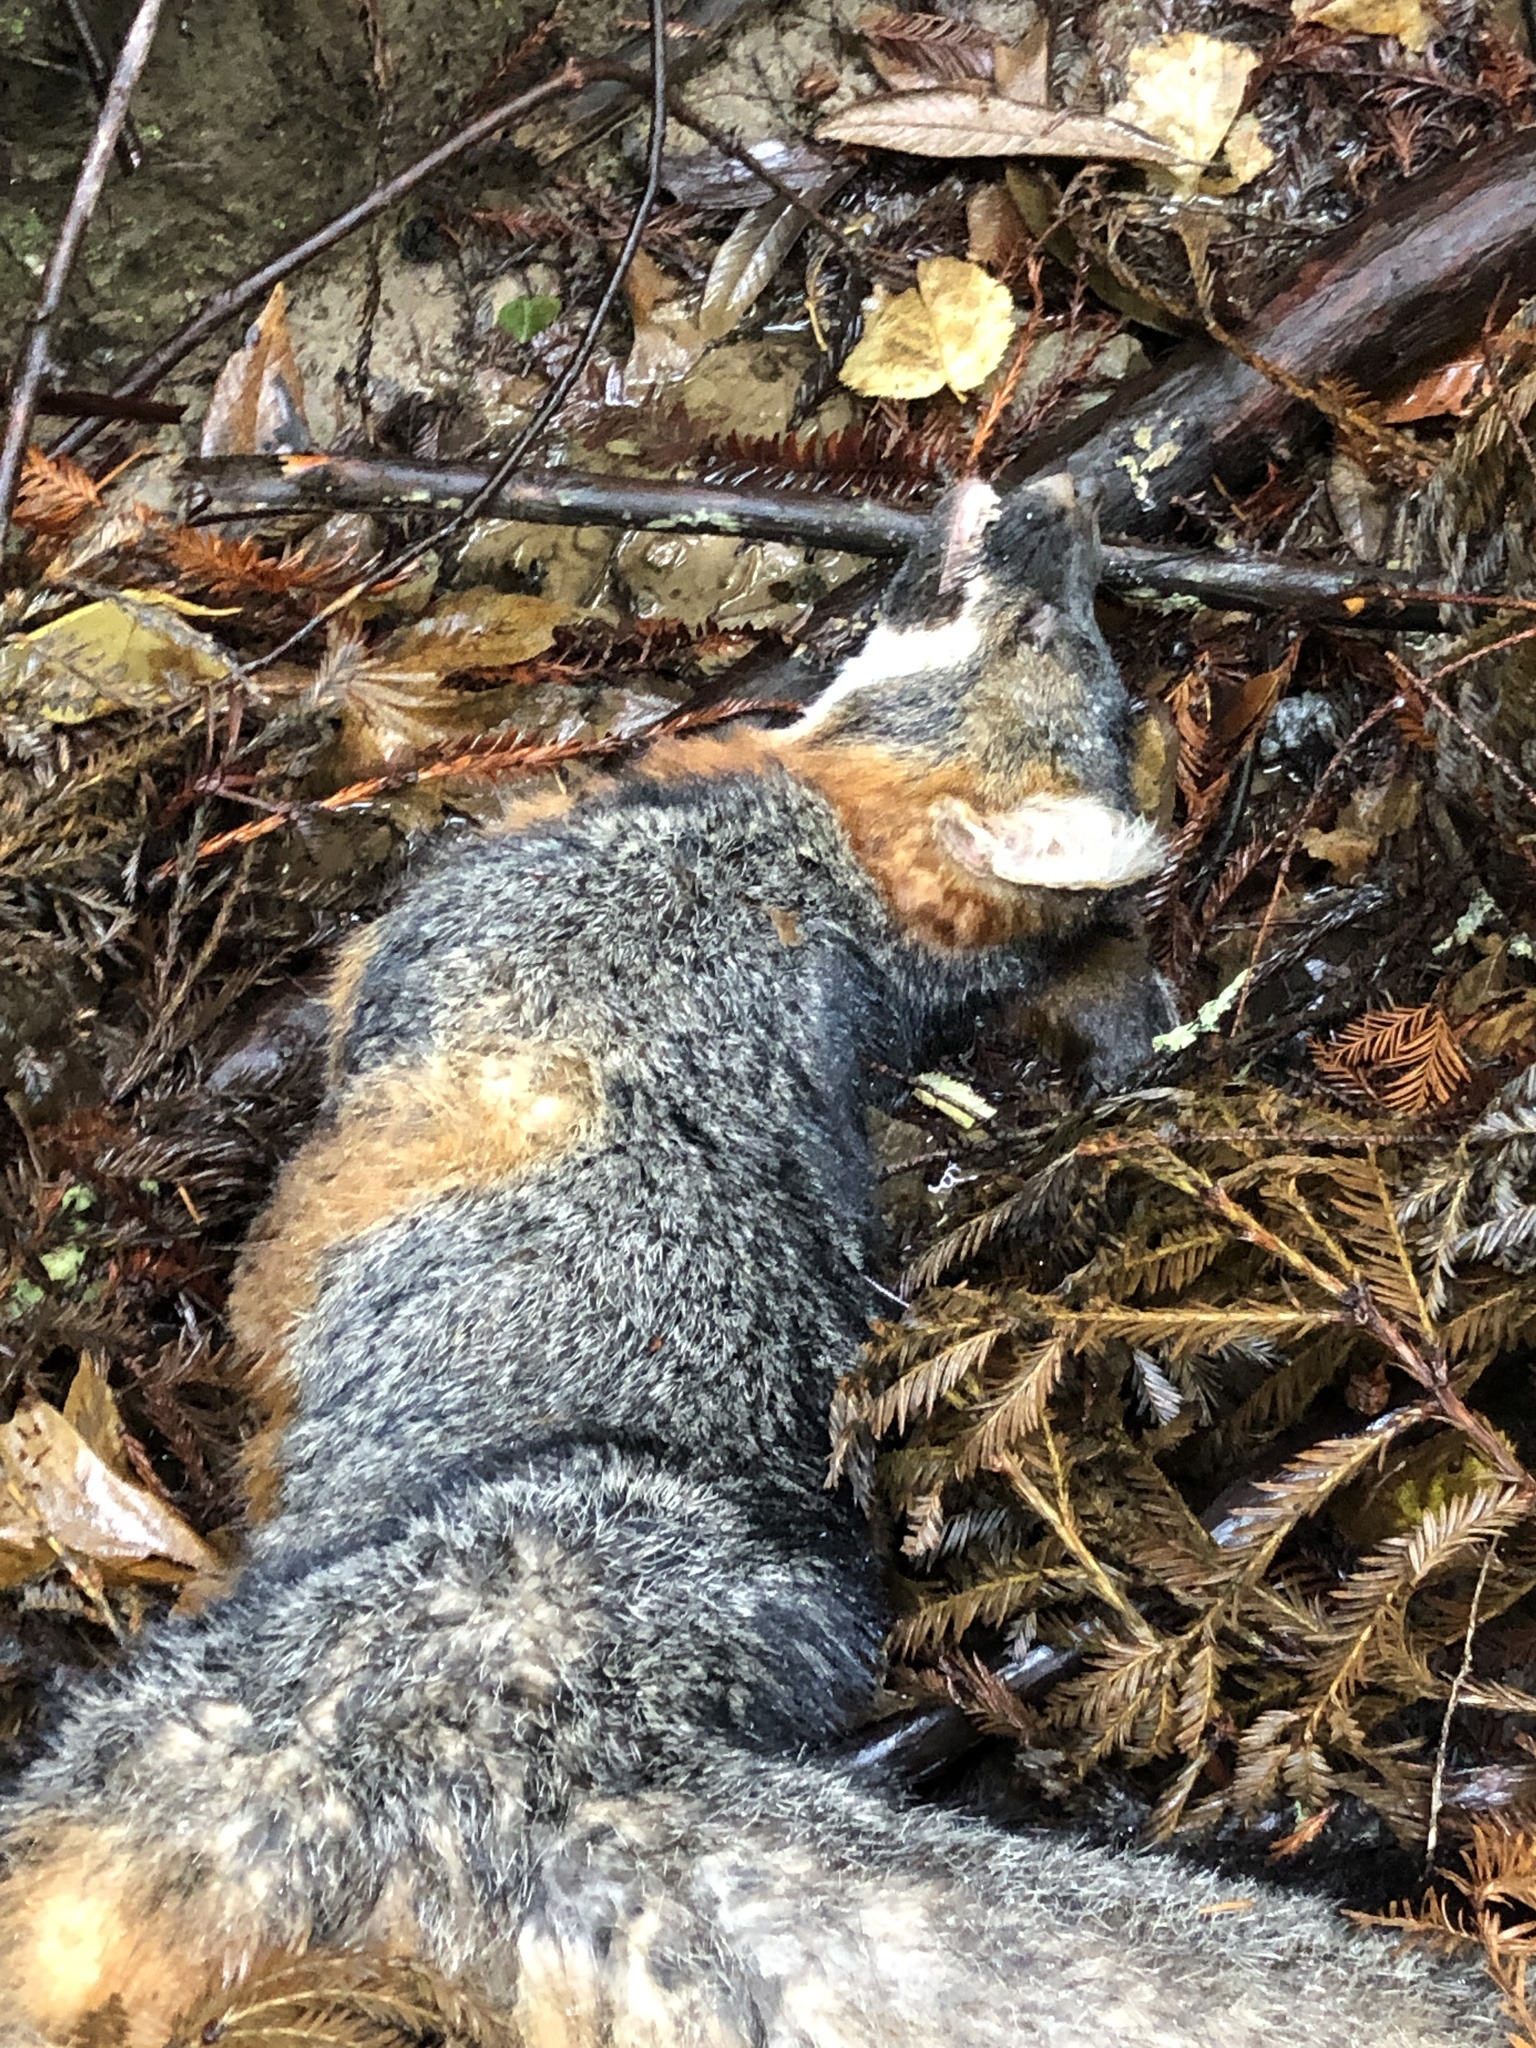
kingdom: Animalia
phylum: Chordata
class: Mammalia
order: Carnivora
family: Canidae
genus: Urocyon
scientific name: Urocyon cinereoargenteus
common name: Gray fox
